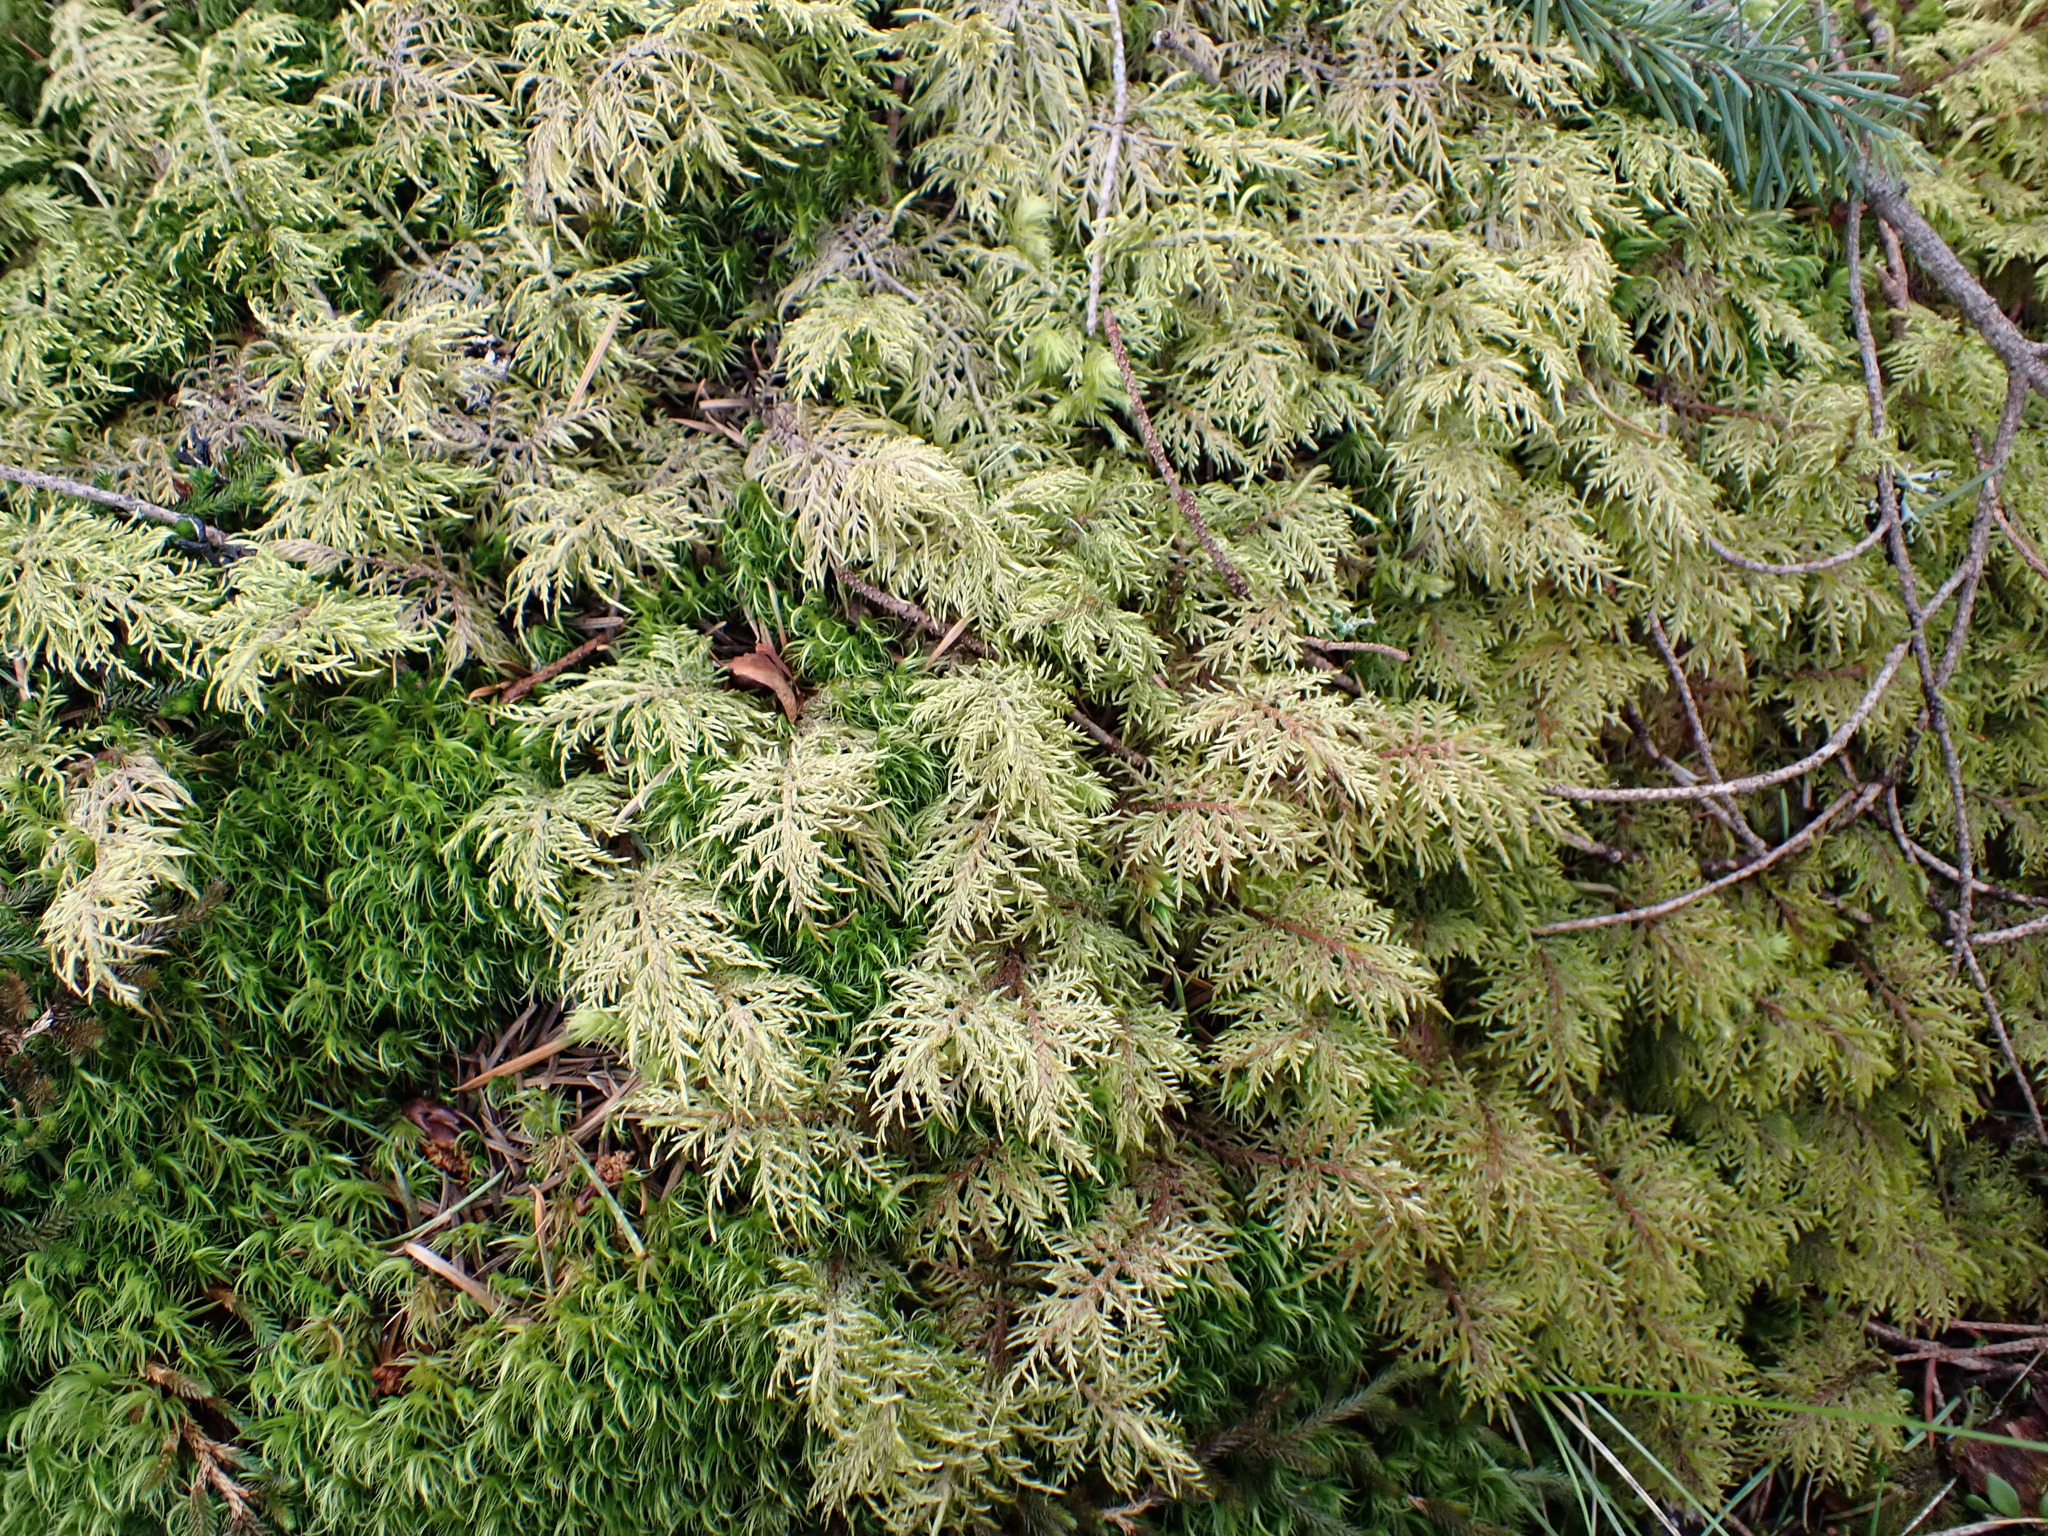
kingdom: Plantae
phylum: Bryophyta
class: Bryopsida
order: Hypnales
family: Hylocomiaceae
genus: Hylocomium
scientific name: Hylocomium splendens
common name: Stairstep moss
